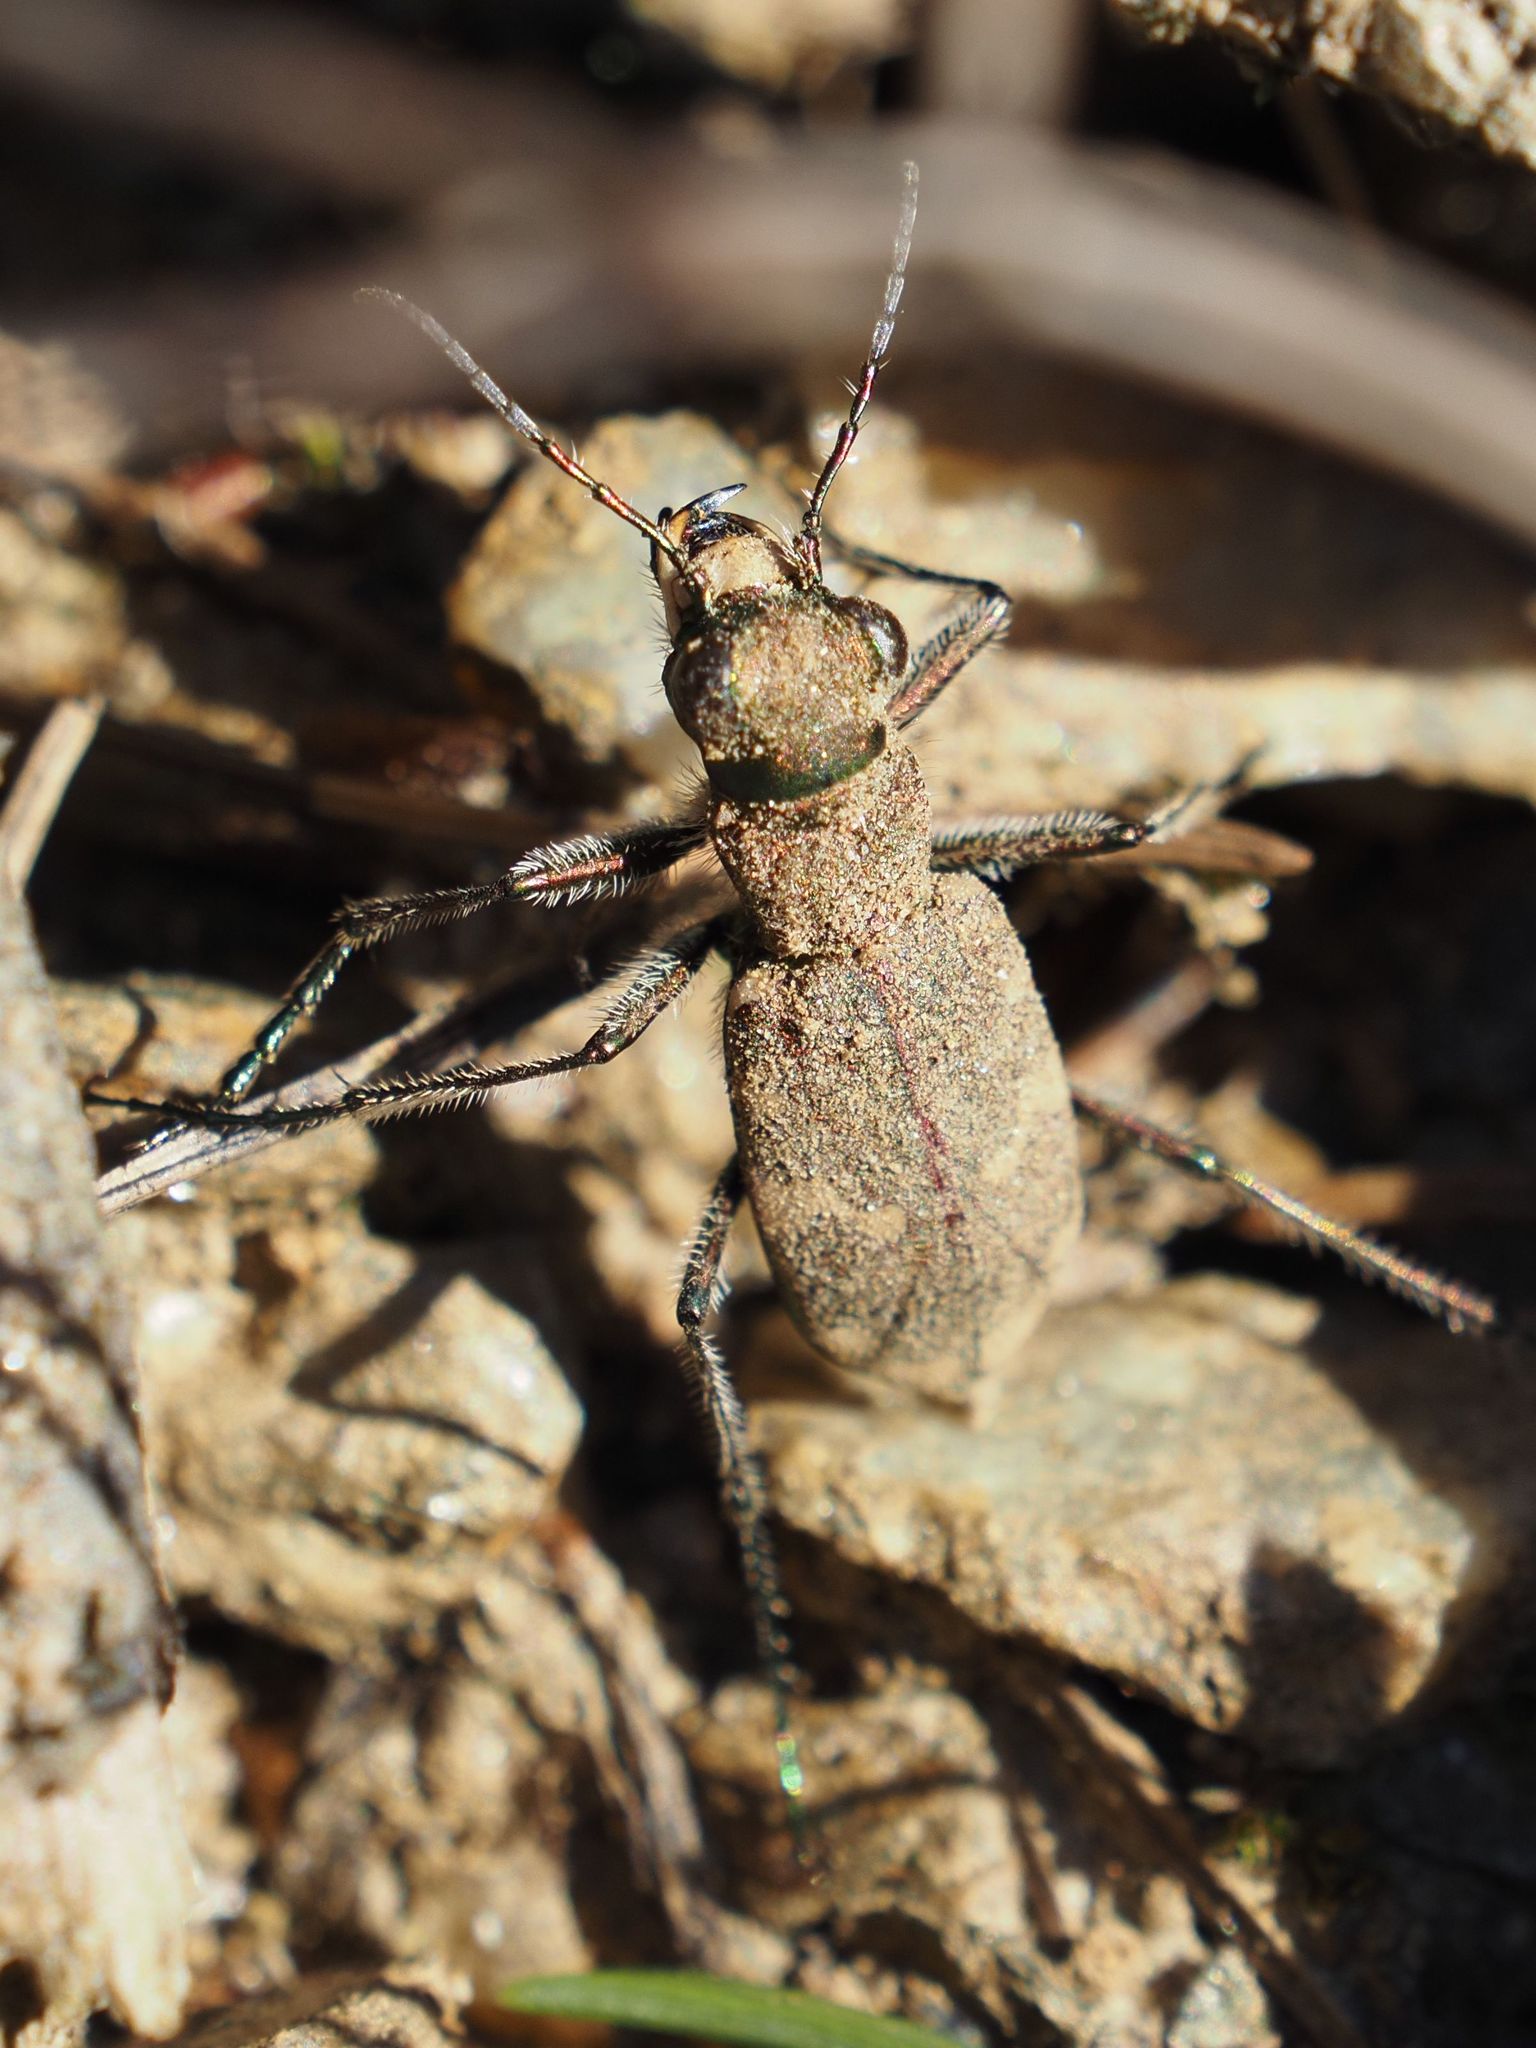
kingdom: Animalia
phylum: Arthropoda
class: Insecta
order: Coleoptera
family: Carabidae
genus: Cicindela
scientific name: Cicindela sylvicola
